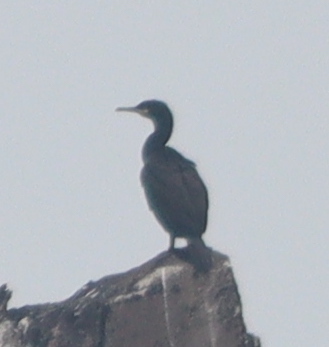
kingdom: Animalia
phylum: Chordata
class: Aves
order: Suliformes
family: Phalacrocoracidae
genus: Phalacrocorax
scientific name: Phalacrocorax aristotelis
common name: European shag
